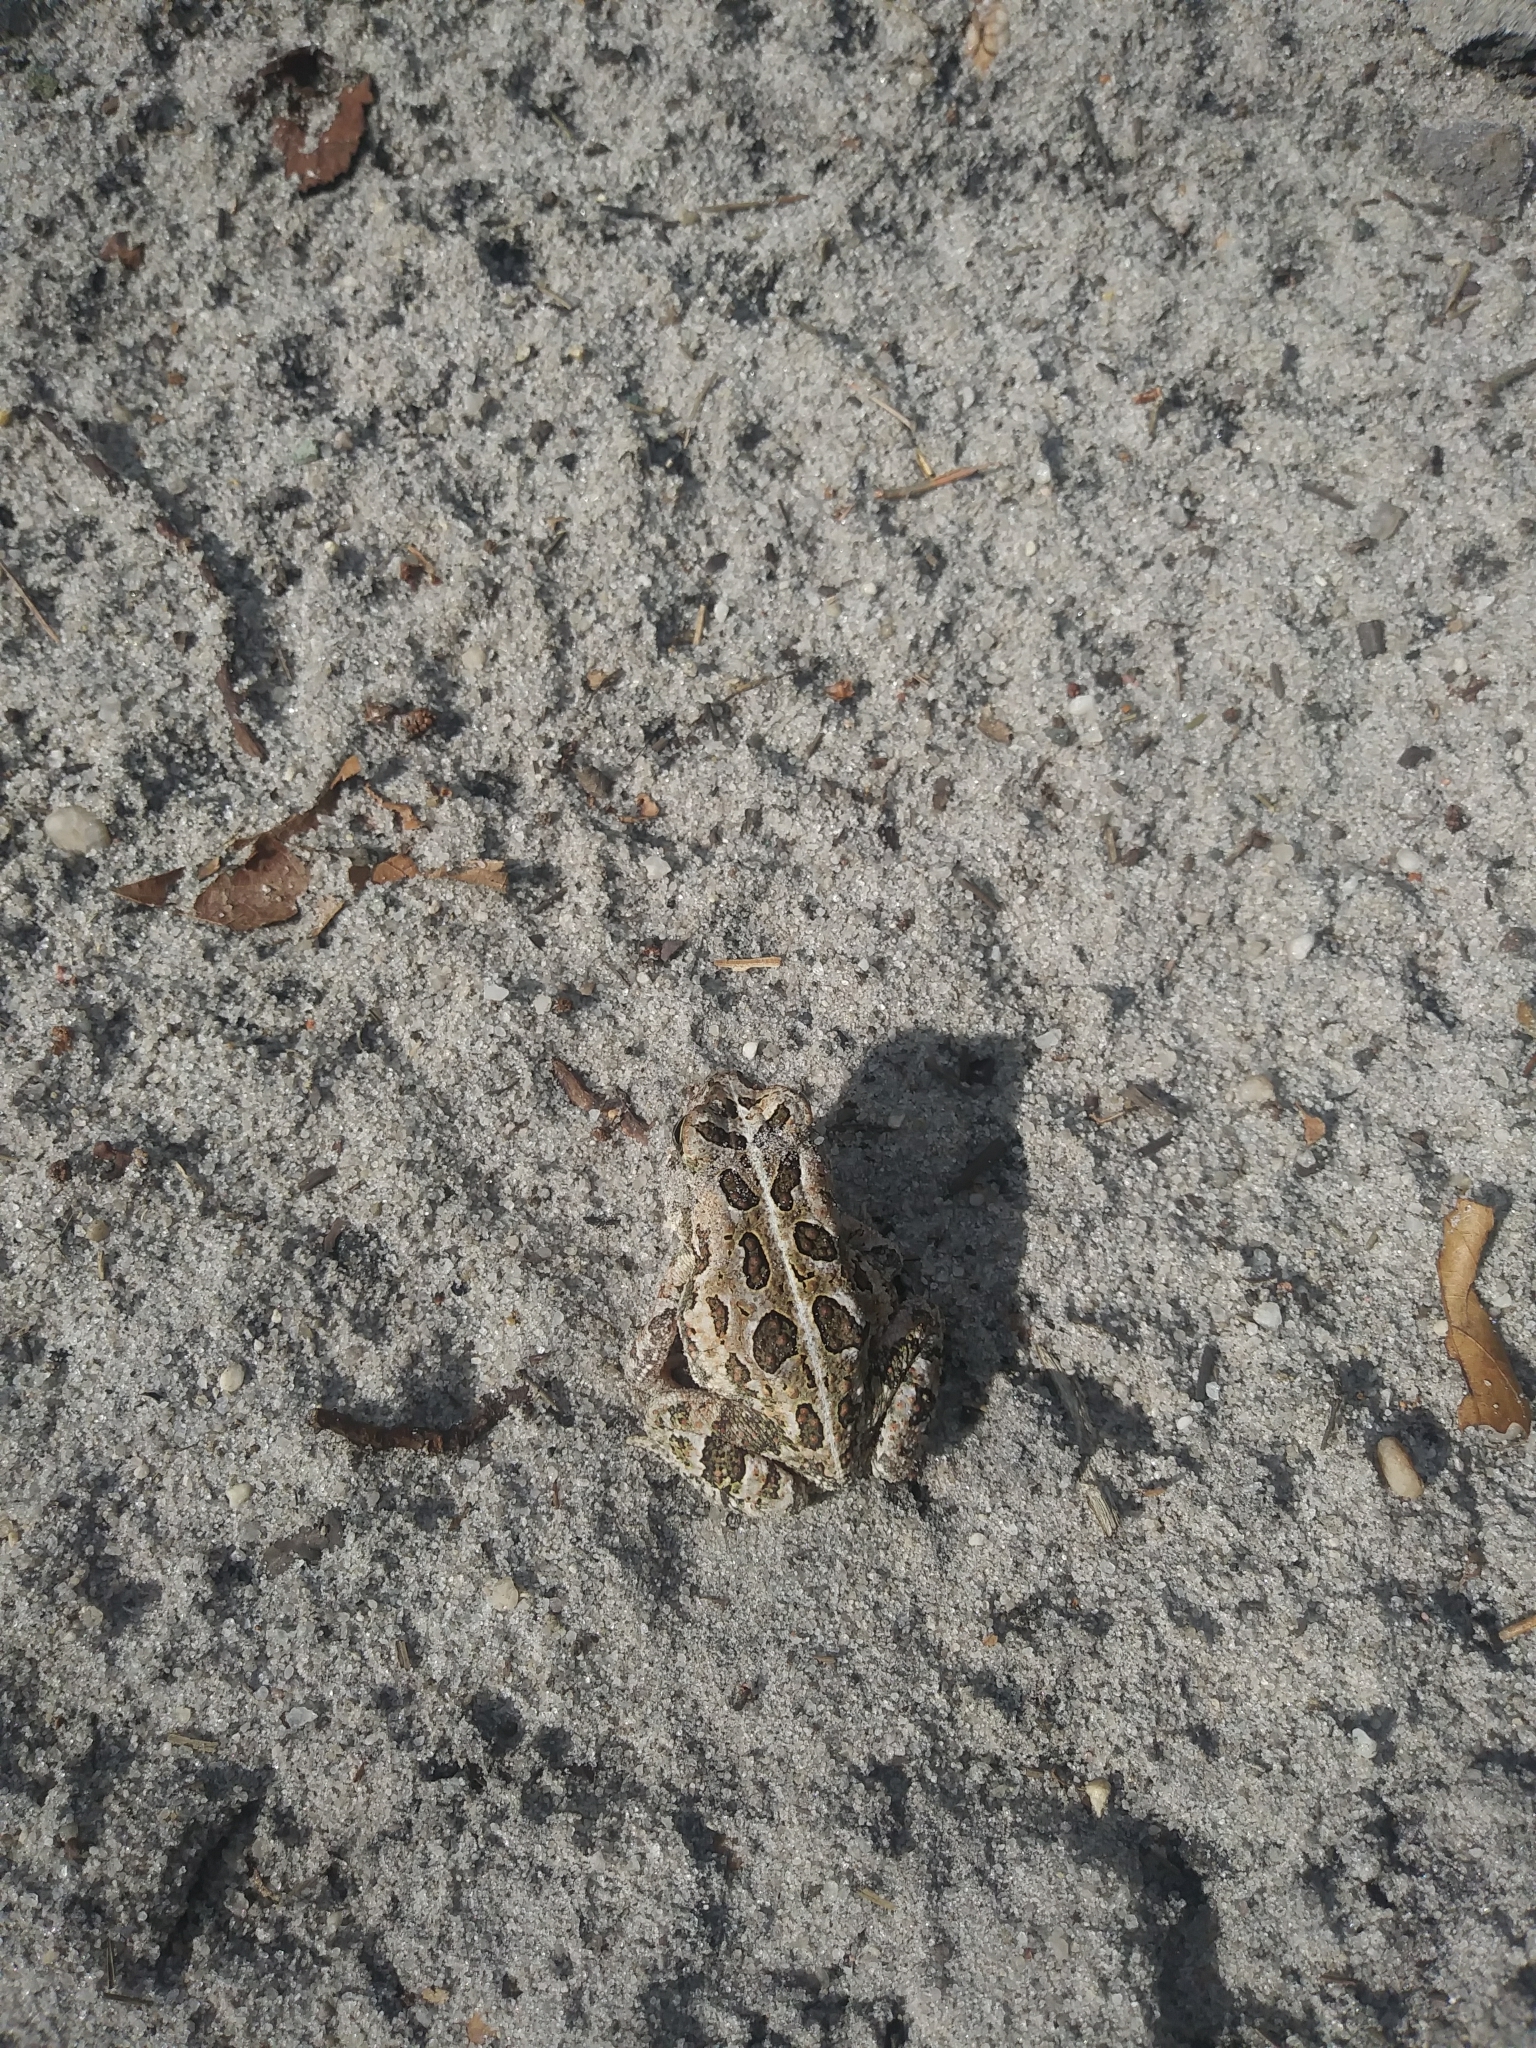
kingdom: Animalia
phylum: Chordata
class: Amphibia
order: Anura
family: Bufonidae
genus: Anaxyrus
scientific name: Anaxyrus fowleri
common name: Fowler's toad
